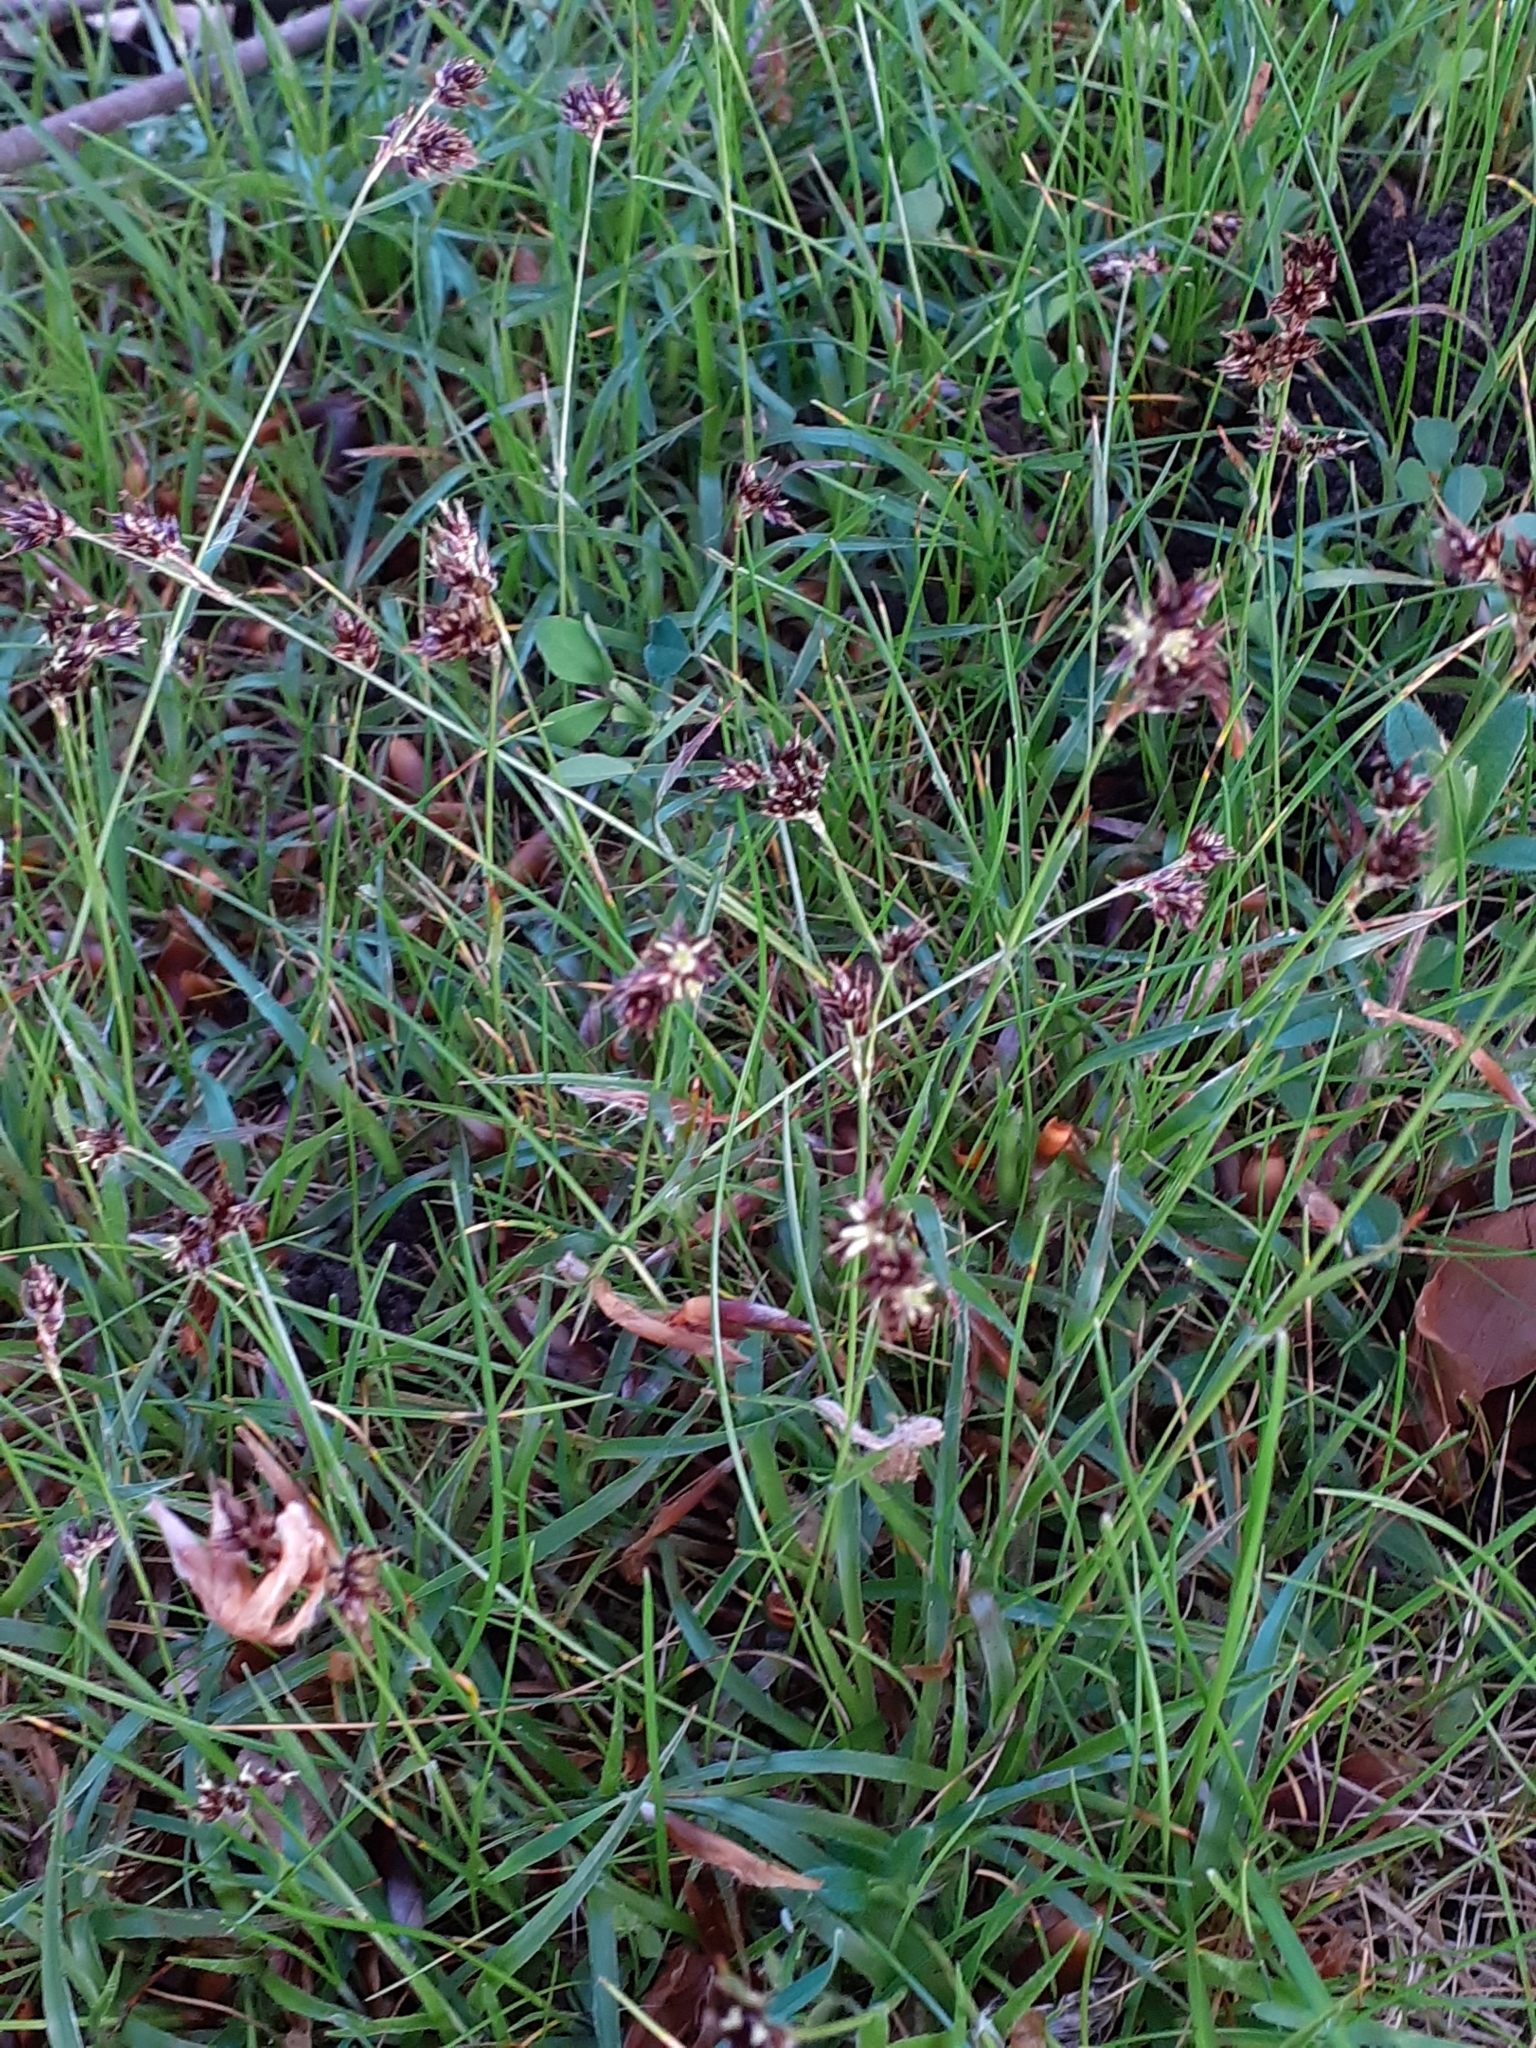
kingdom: Plantae
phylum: Tracheophyta
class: Liliopsida
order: Poales
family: Juncaceae
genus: Luzula
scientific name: Luzula campestris
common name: Field wood-rush
